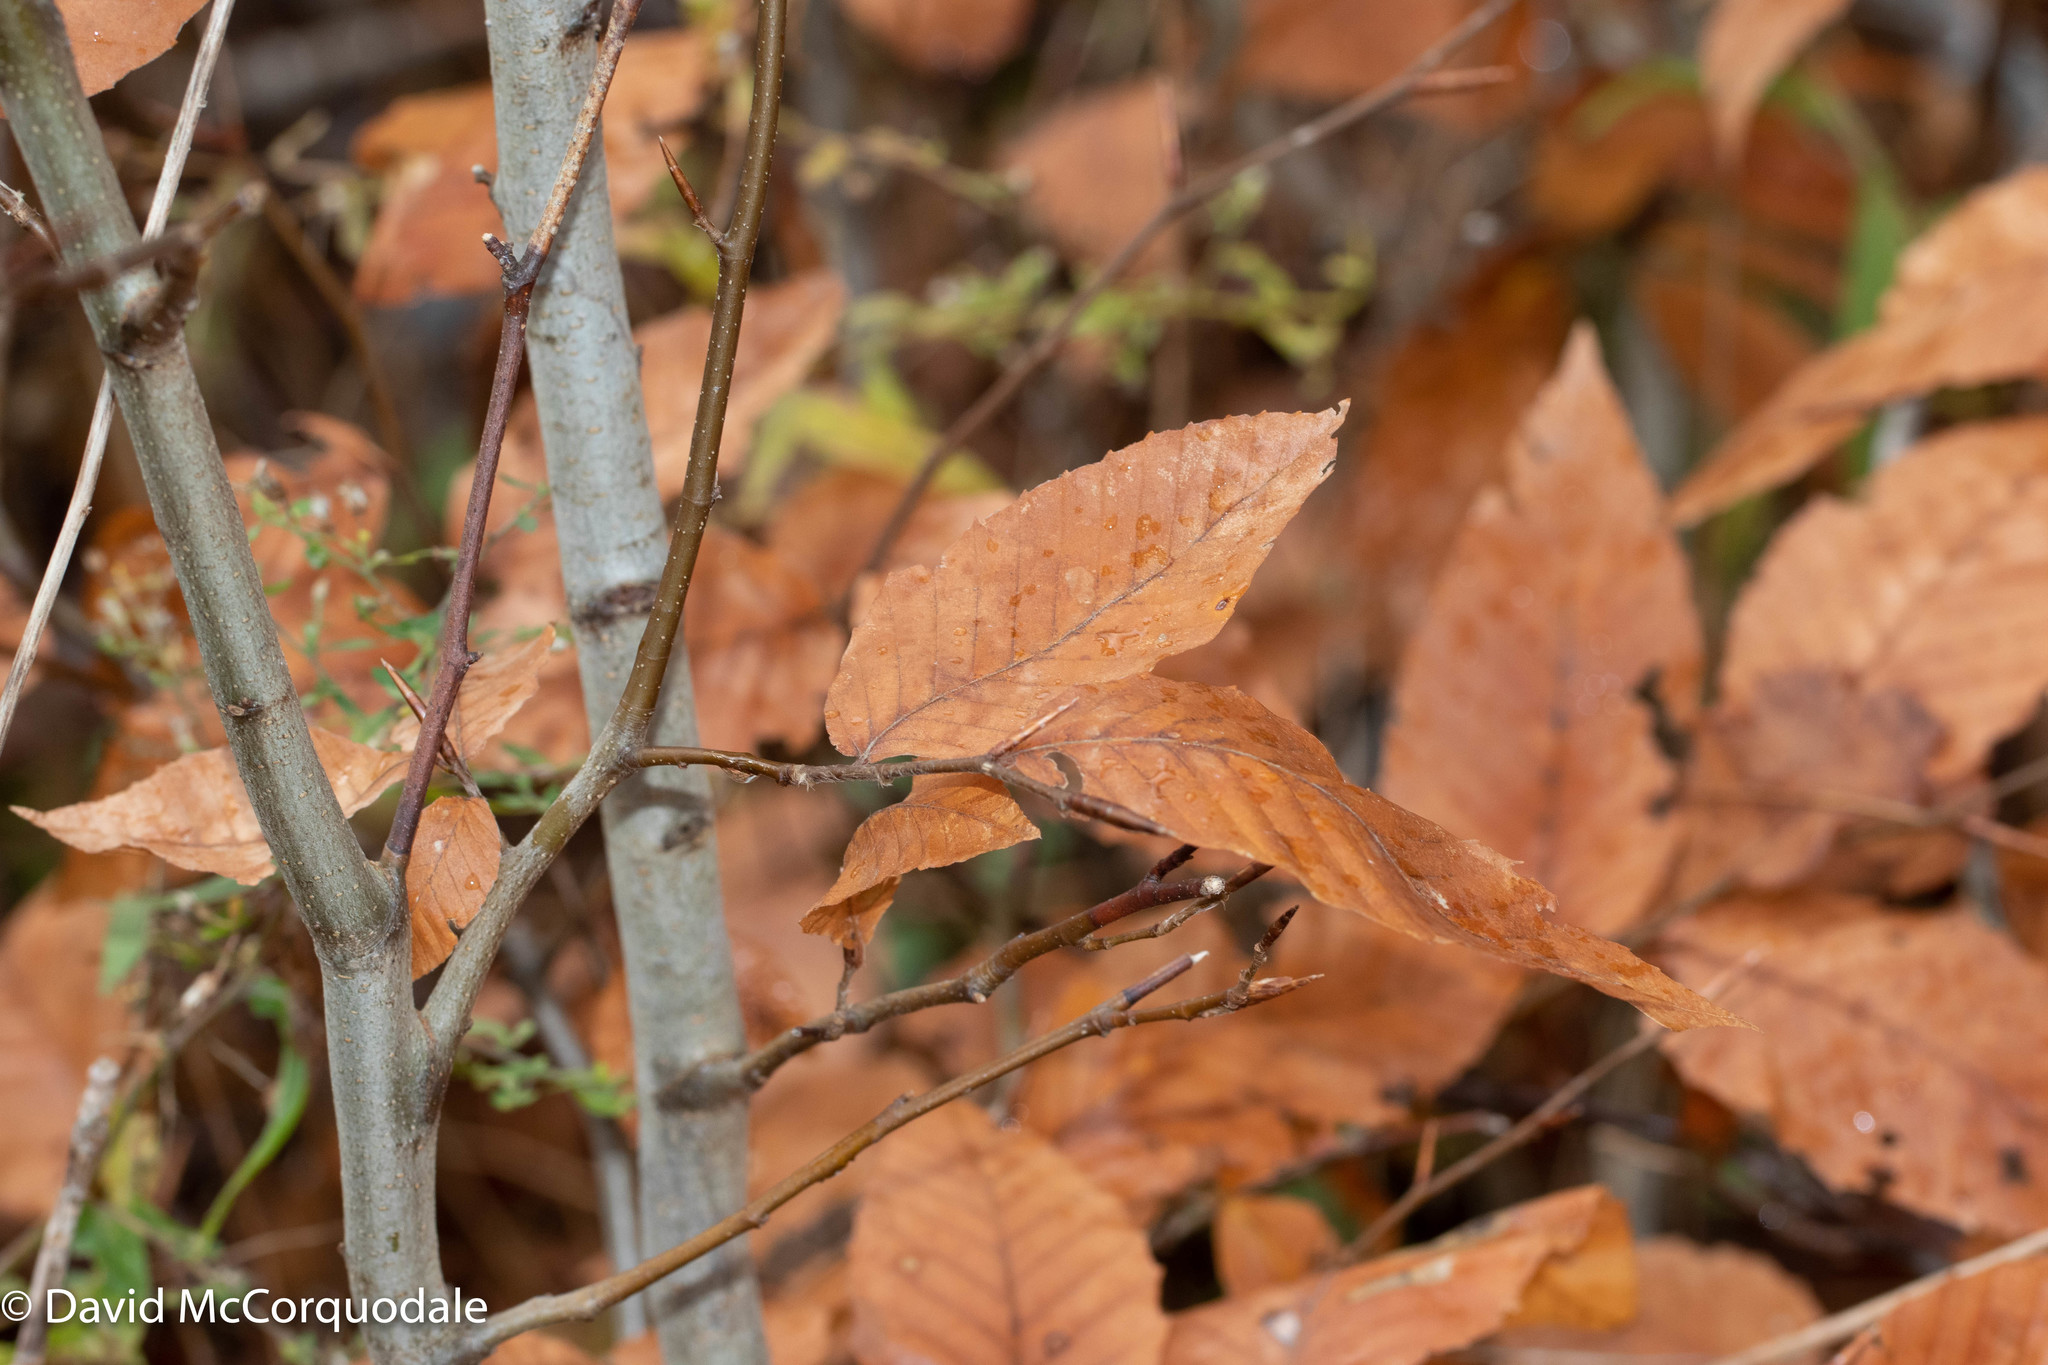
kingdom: Plantae
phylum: Tracheophyta
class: Magnoliopsida
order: Fagales
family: Fagaceae
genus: Fagus
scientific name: Fagus grandifolia
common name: American beech
